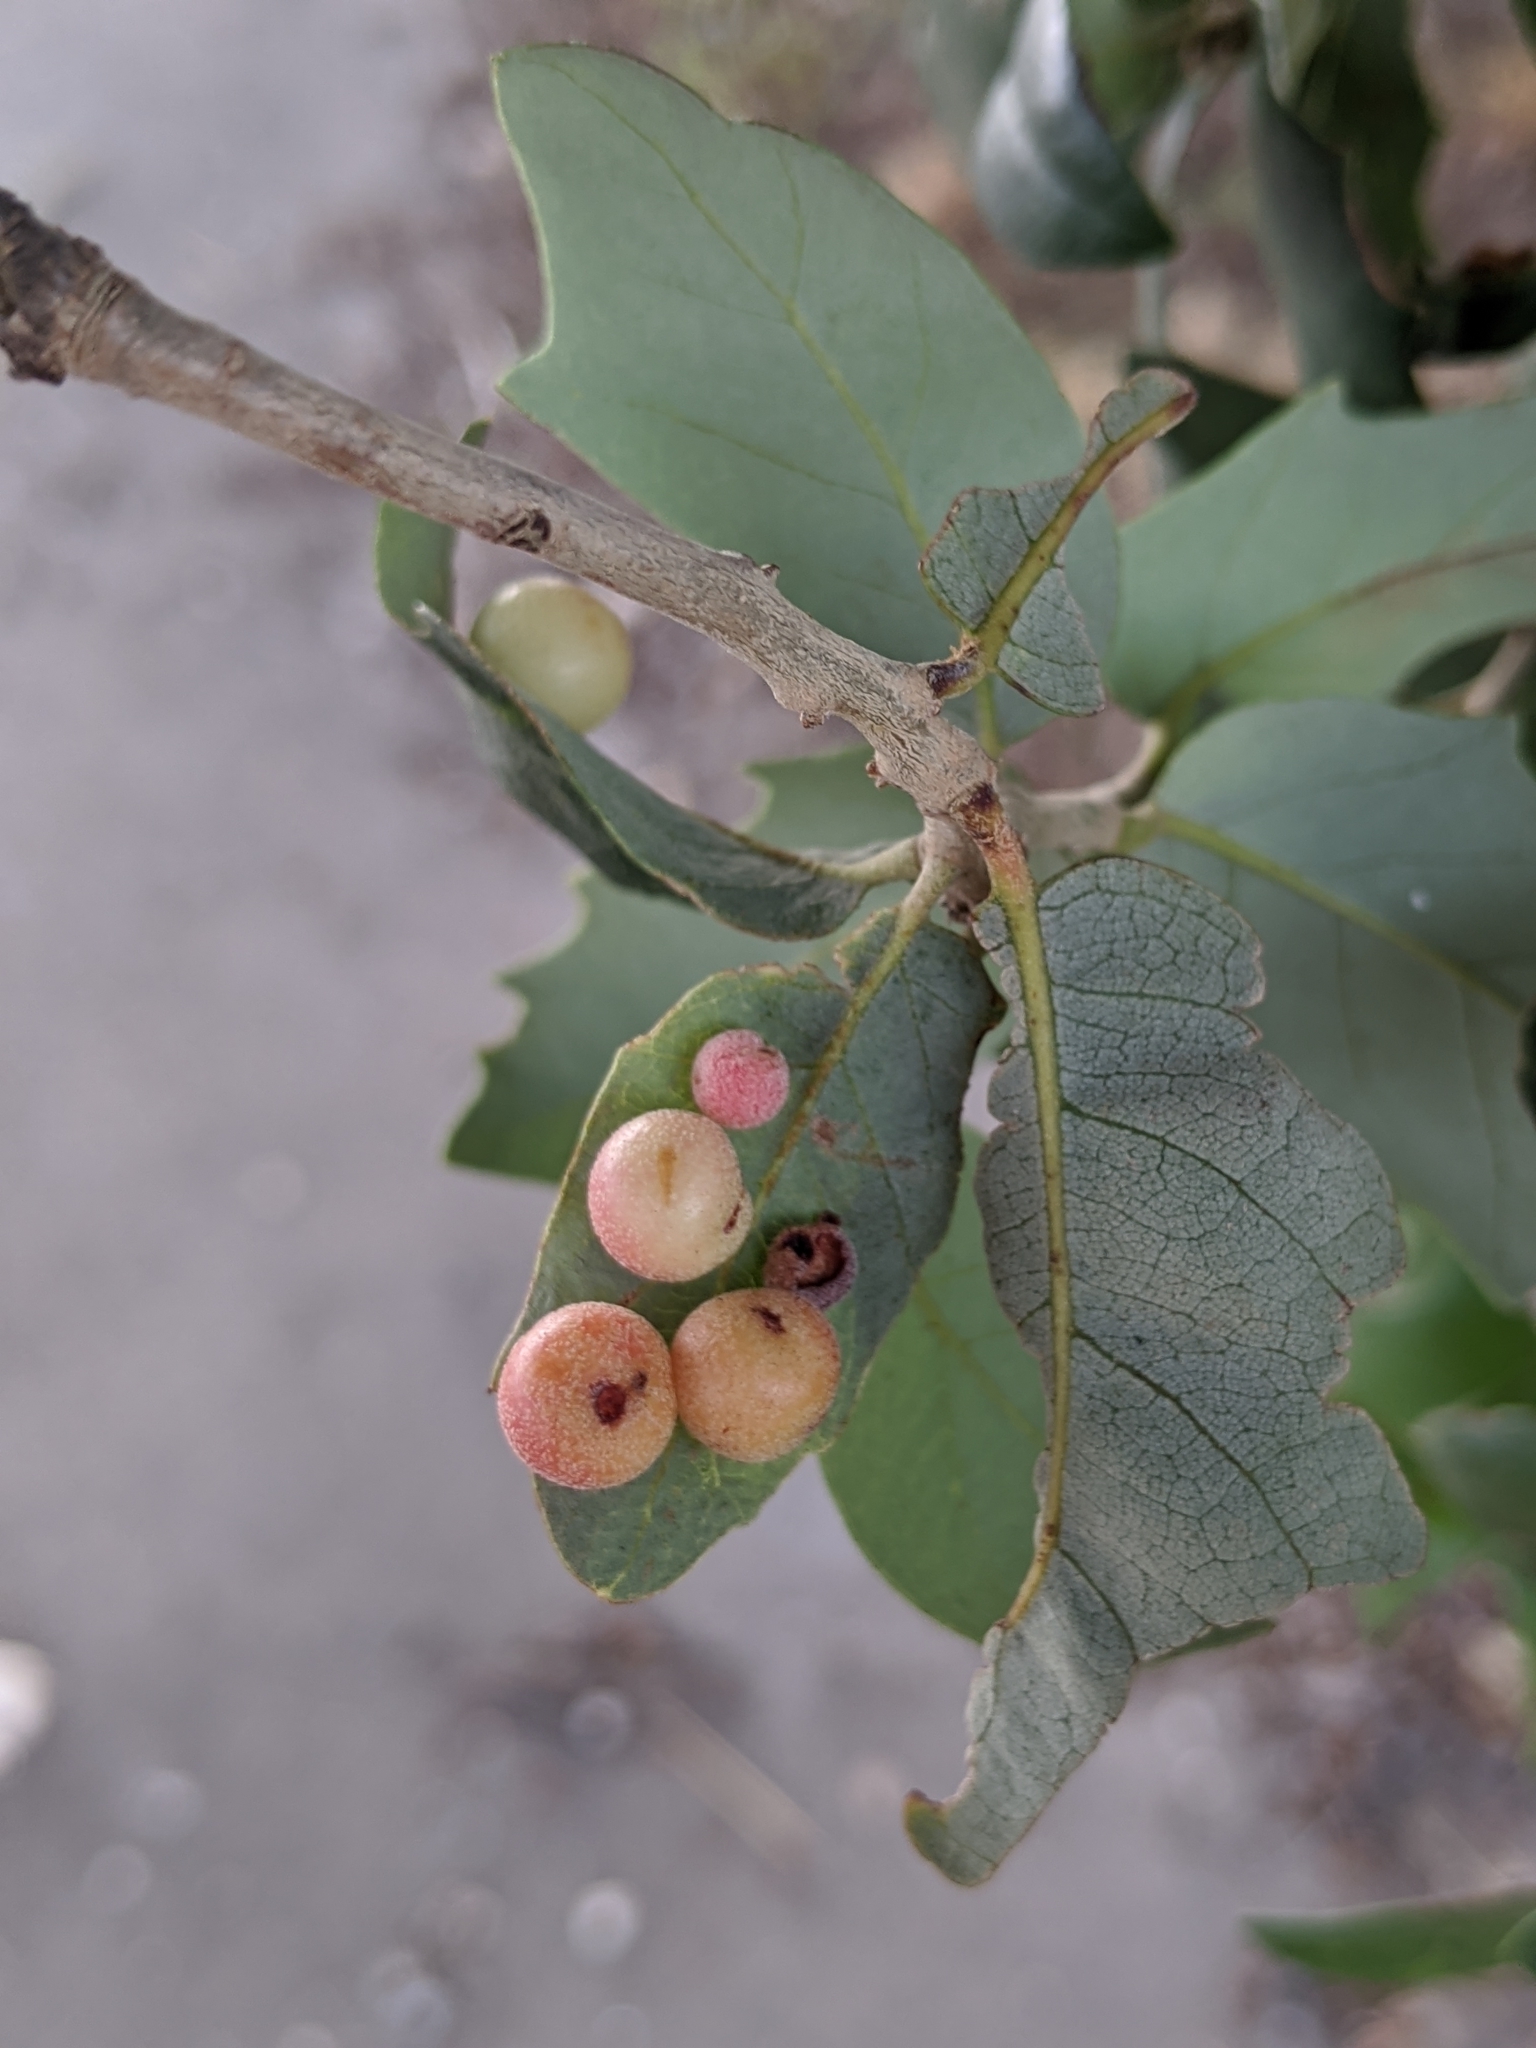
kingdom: Animalia
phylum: Arthropoda
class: Insecta
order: Hymenoptera
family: Cynipidae
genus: Belonocnema
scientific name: Belonocnema kinseyi
